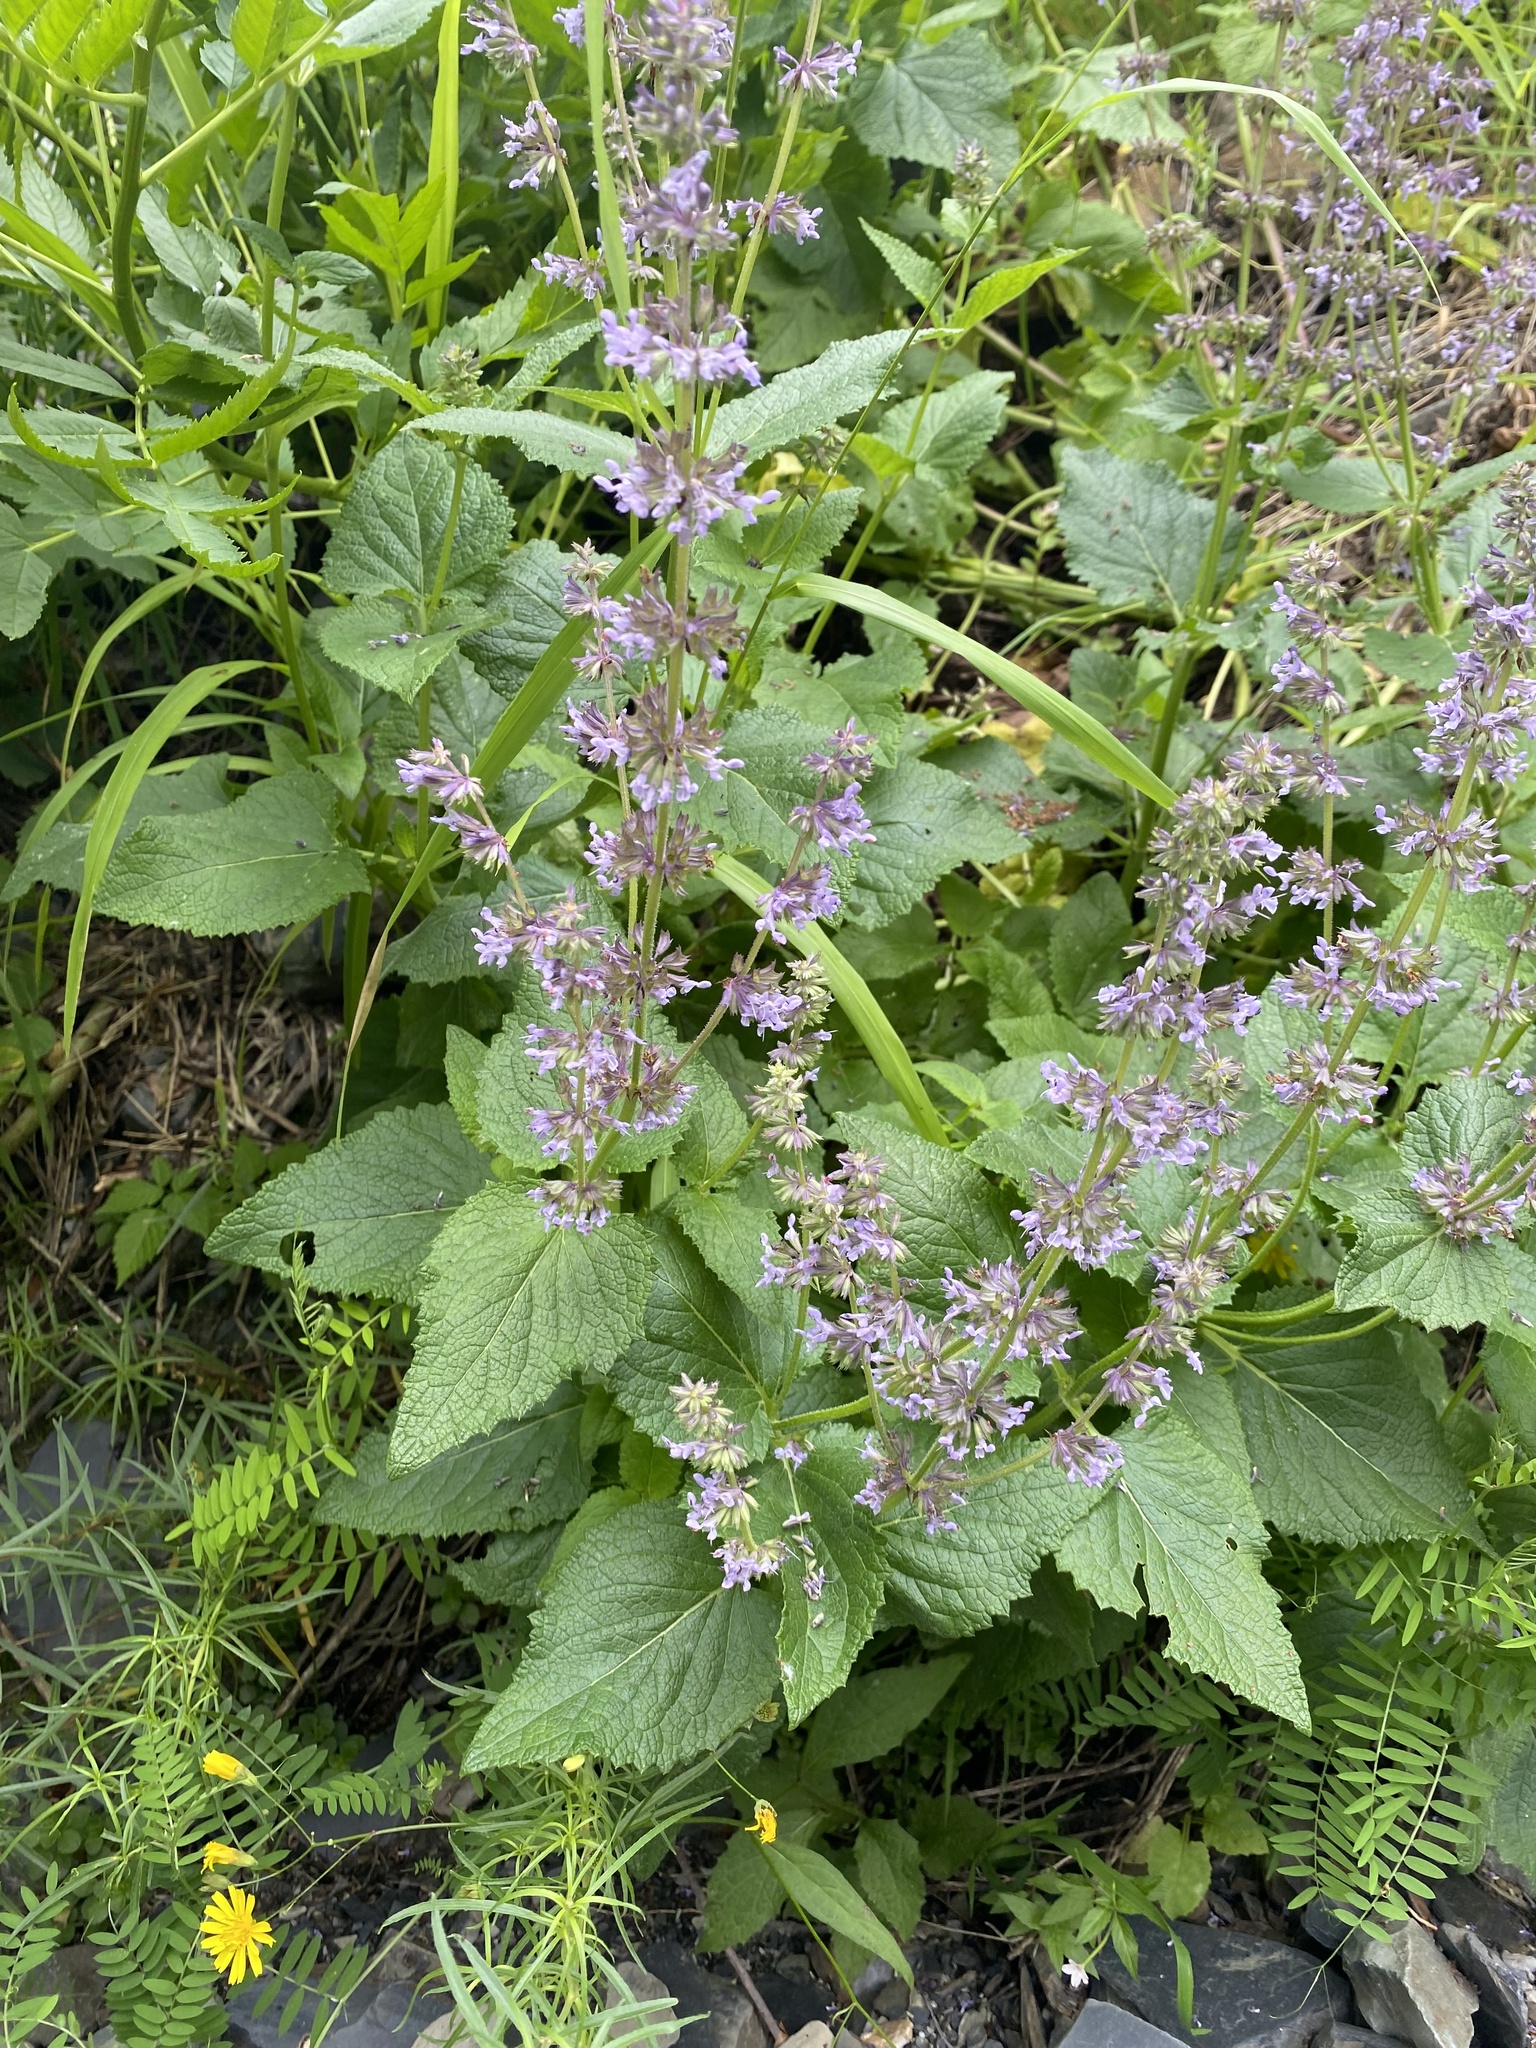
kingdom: Plantae
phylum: Tracheophyta
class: Magnoliopsida
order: Lamiales
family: Lamiaceae
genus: Salvia
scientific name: Salvia verticillata
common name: Whorled clary
